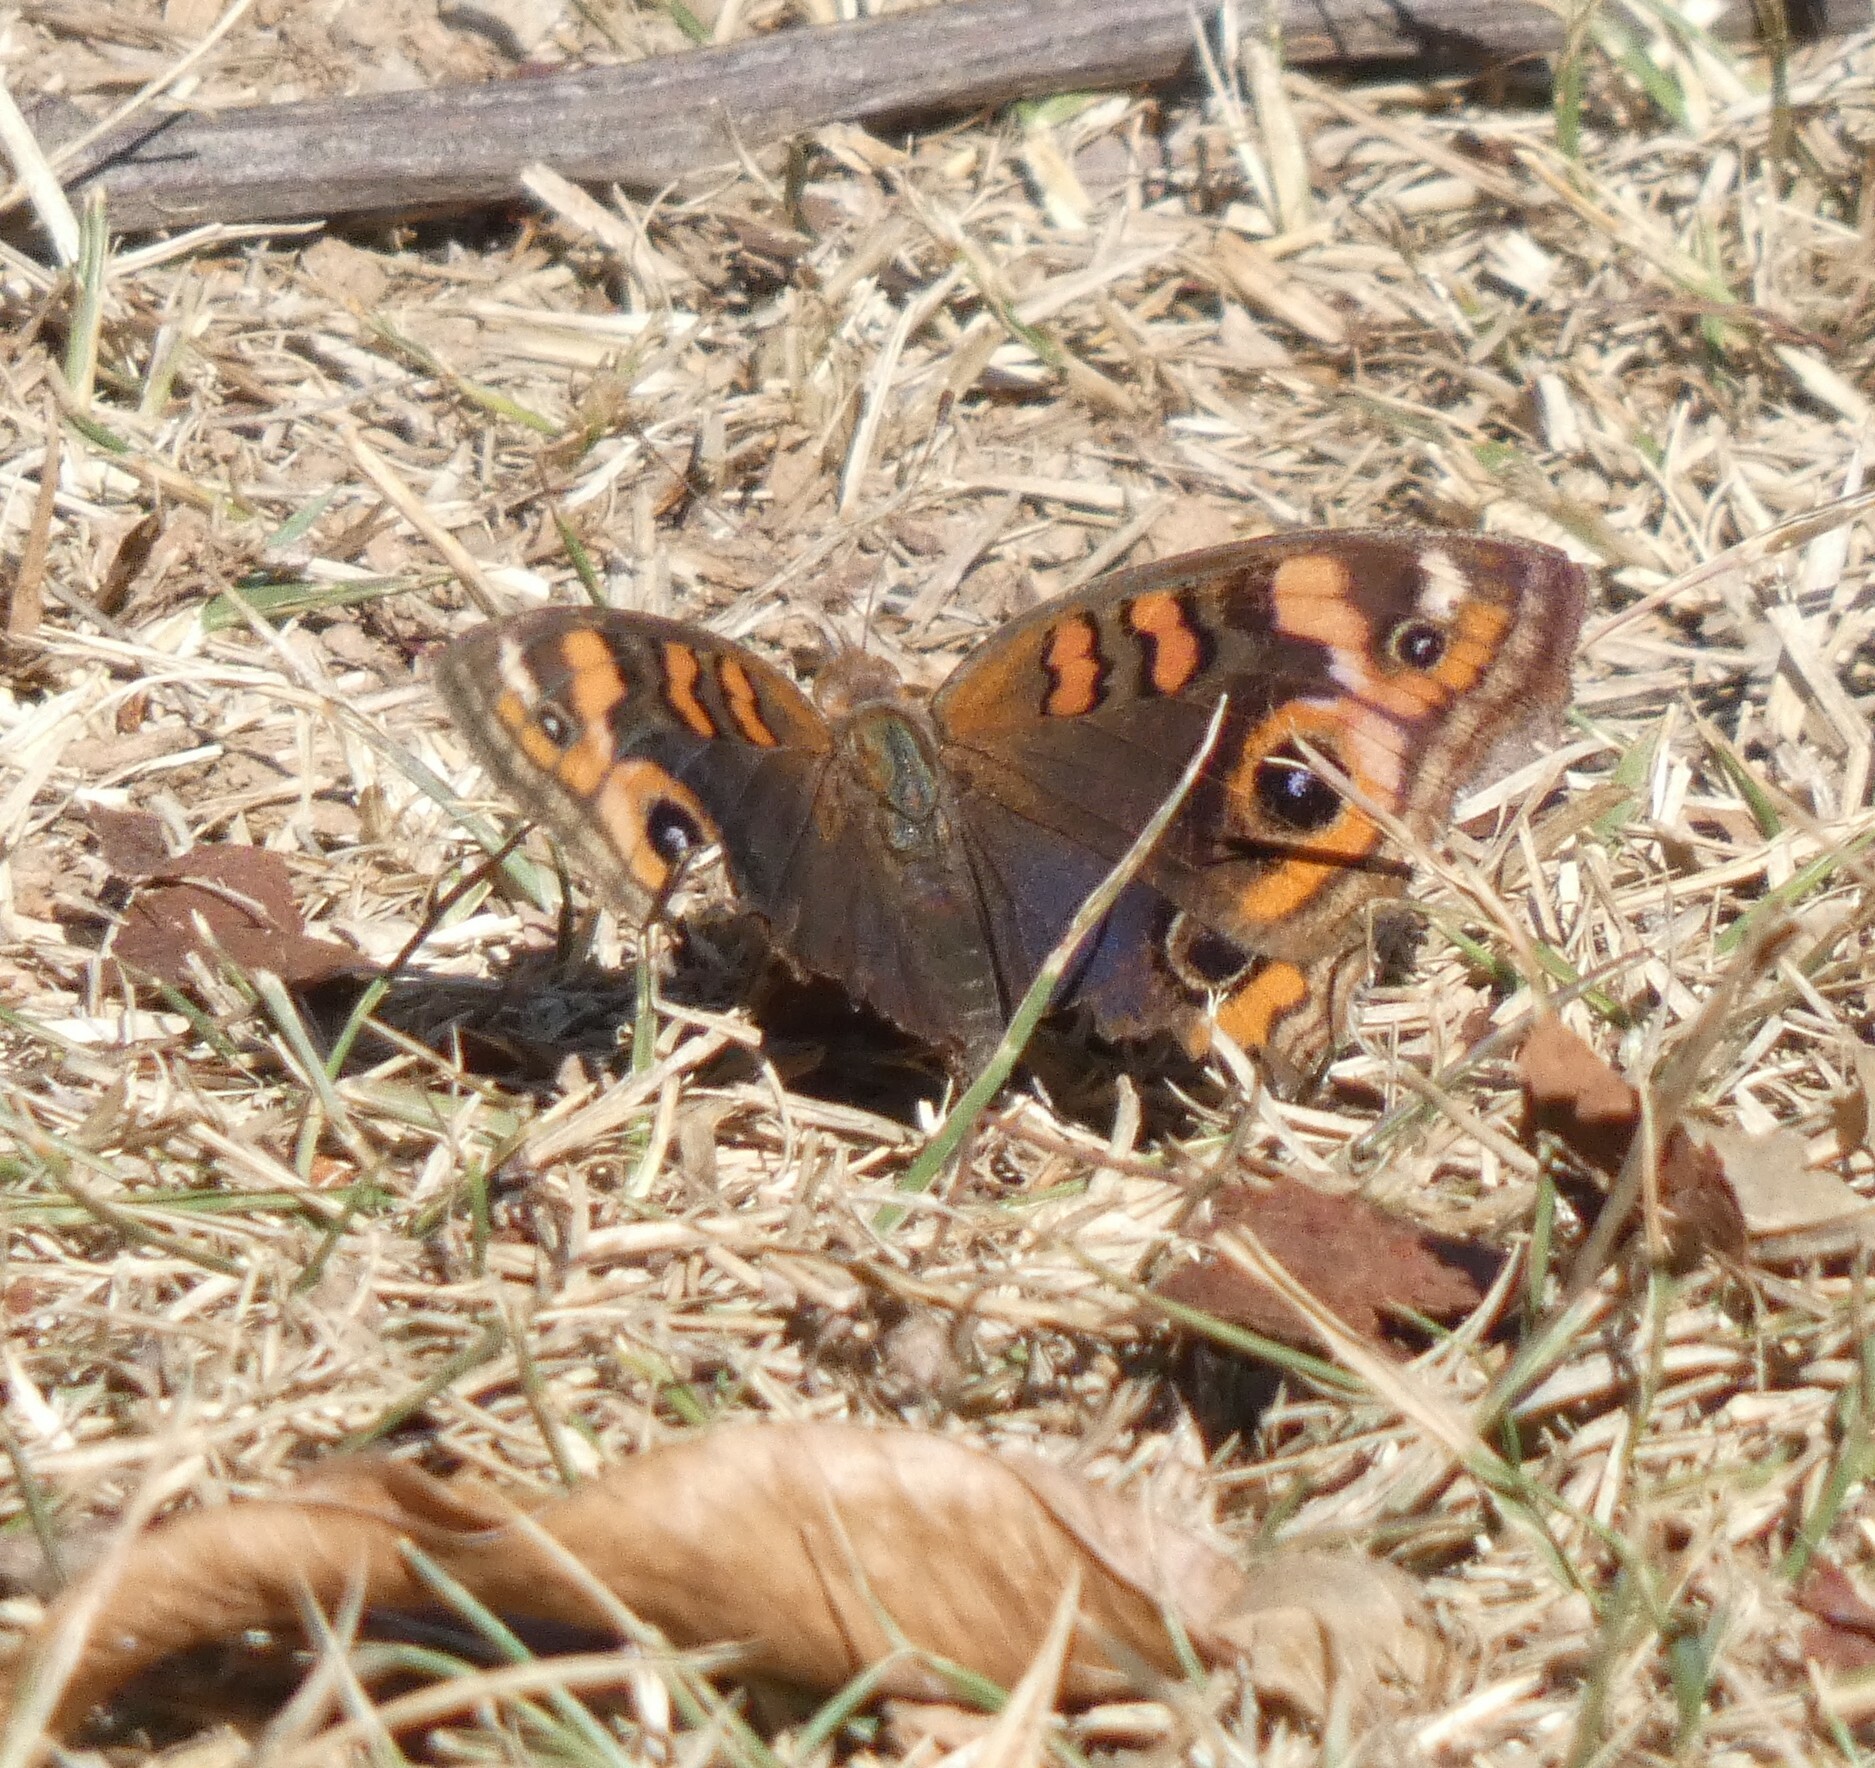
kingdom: Animalia
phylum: Arthropoda
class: Insecta
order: Lepidoptera
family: Nymphalidae
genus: Junonia
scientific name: Junonia evarete
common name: Black mangrove buckeye
